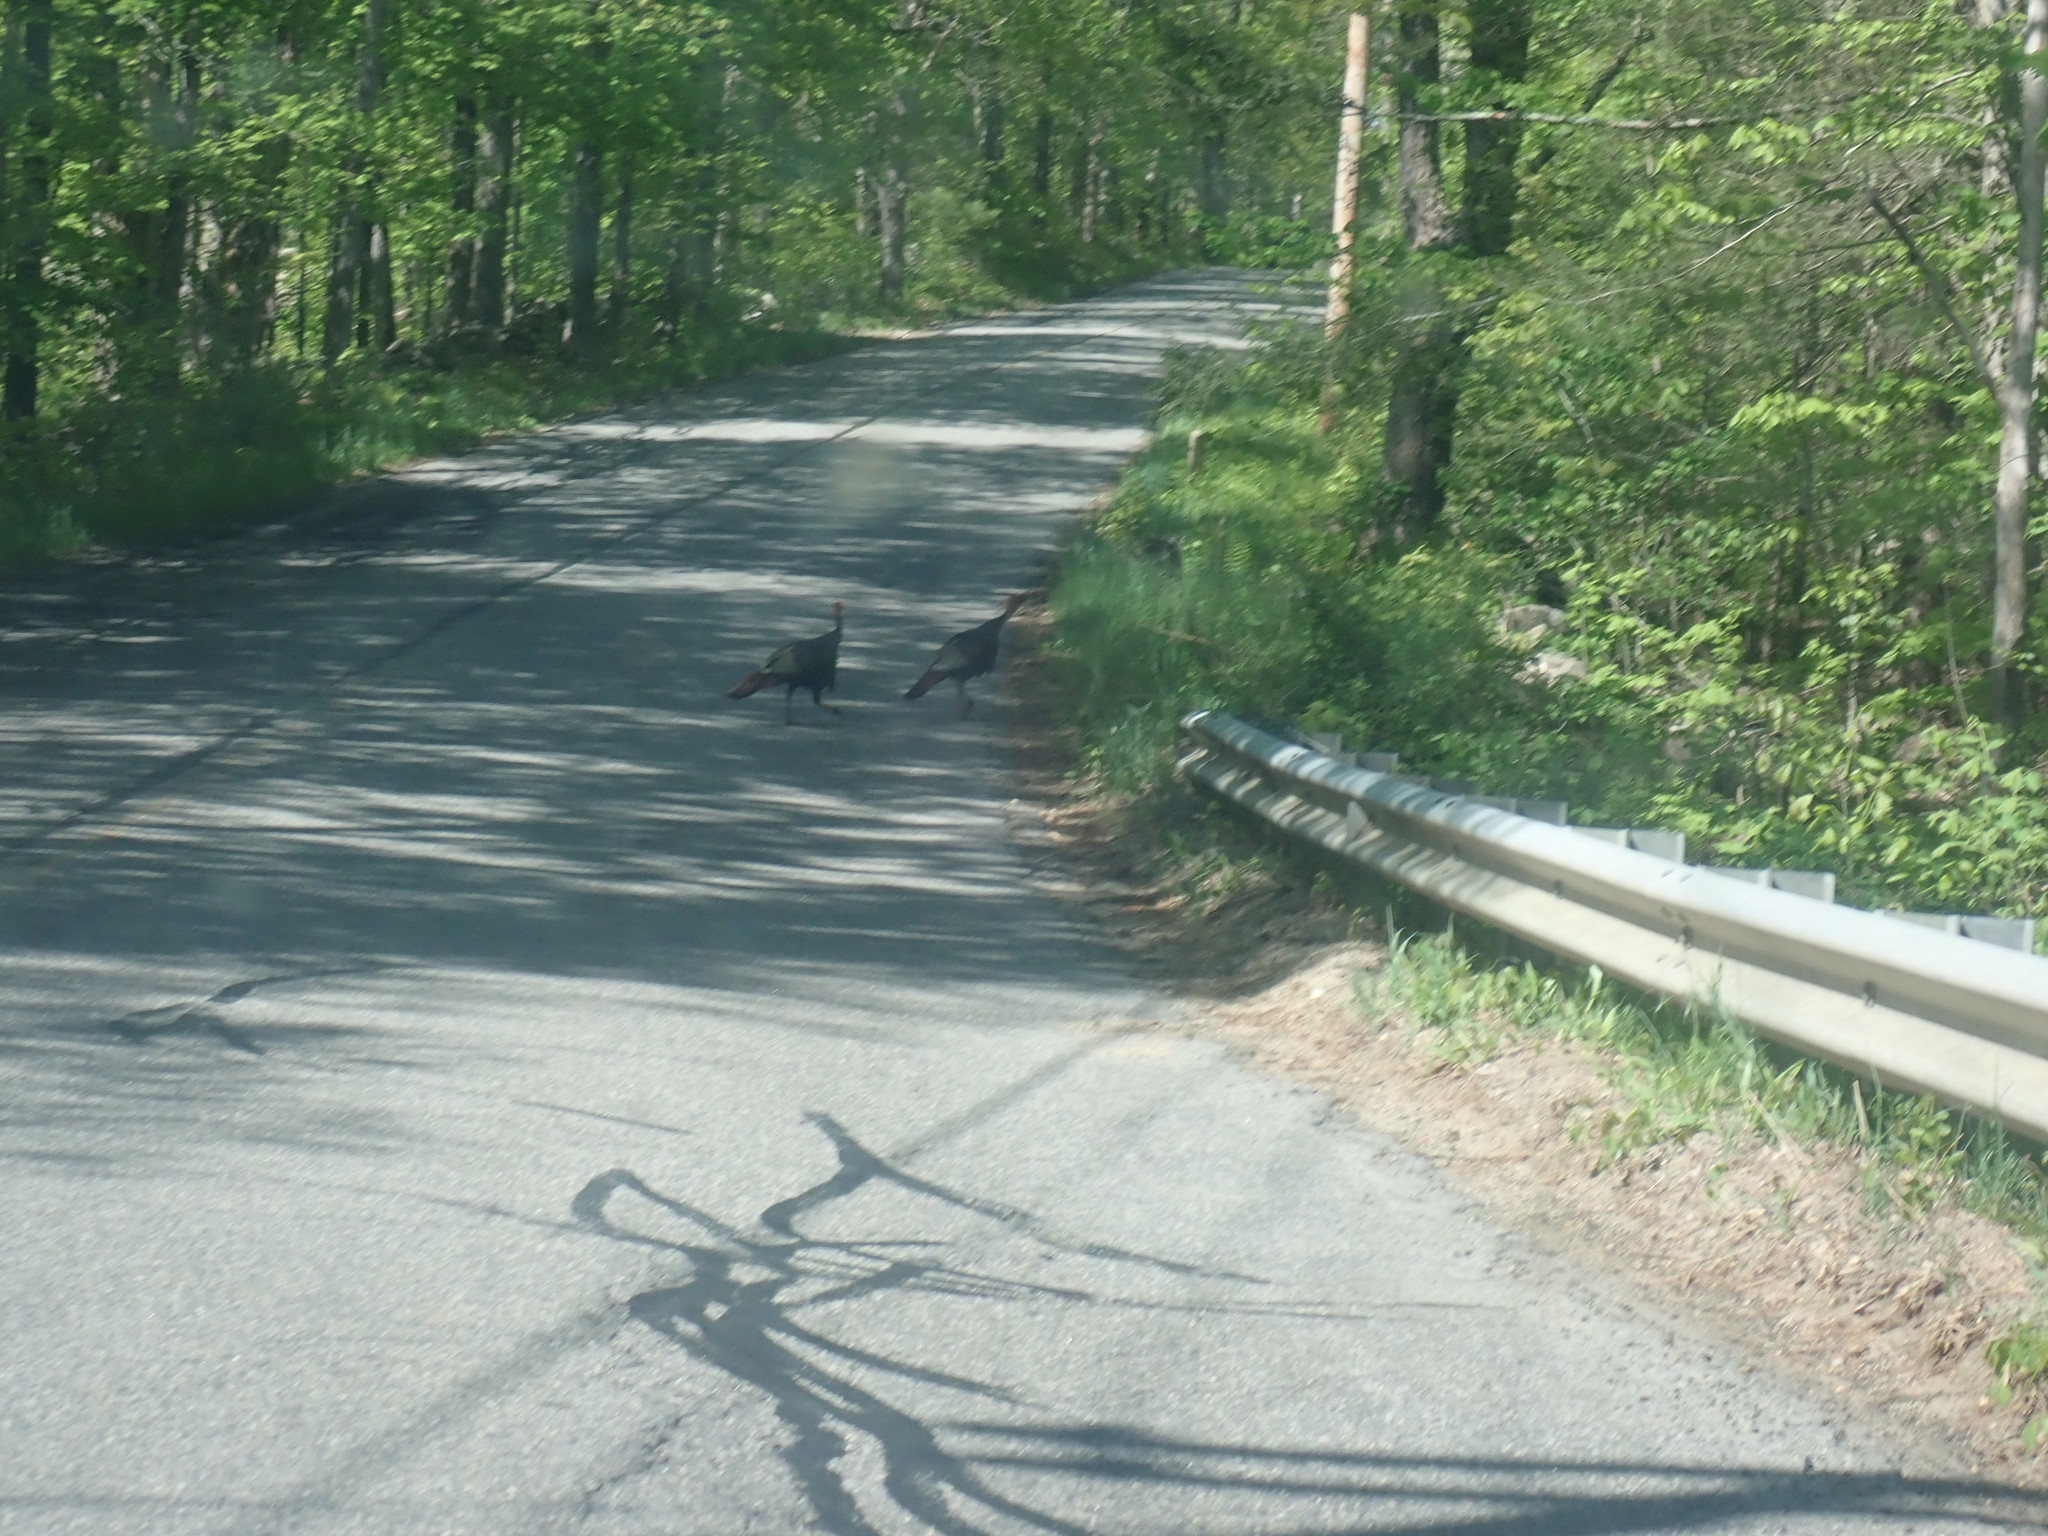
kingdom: Animalia
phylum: Chordata
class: Aves
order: Galliformes
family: Phasianidae
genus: Meleagris
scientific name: Meleagris gallopavo
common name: Wild turkey
